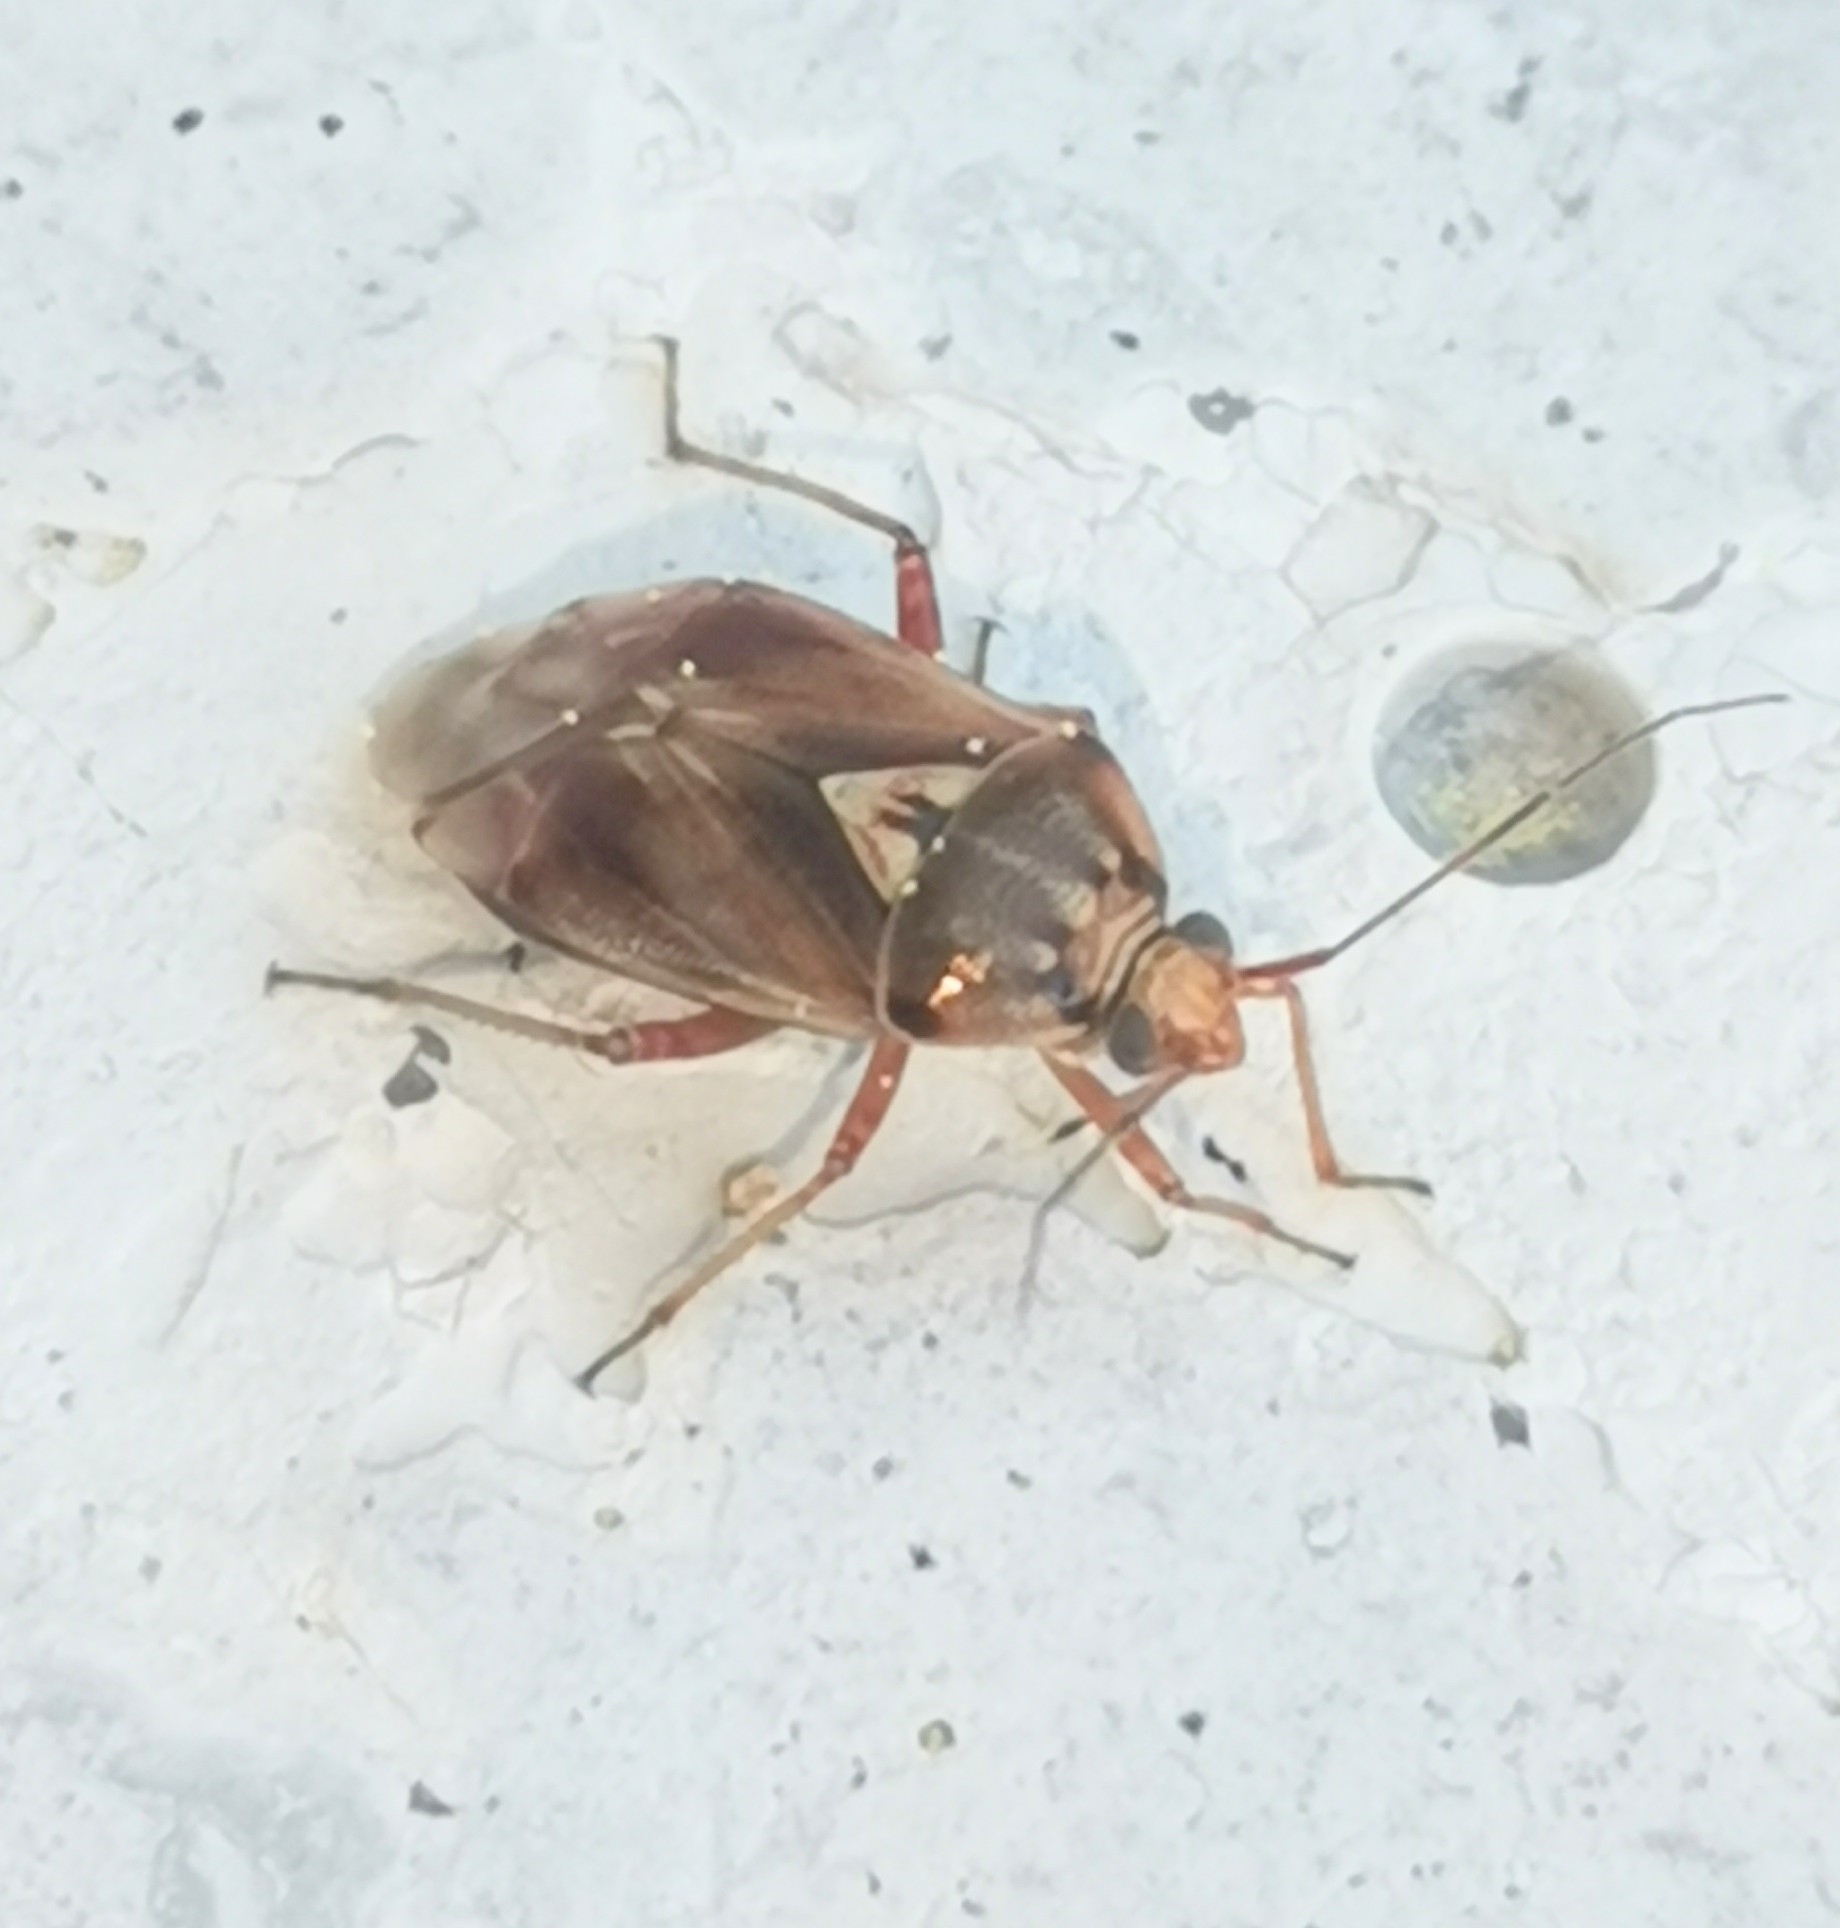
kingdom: Animalia
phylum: Arthropoda
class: Insecta
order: Hemiptera
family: Miridae
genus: Lygus
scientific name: Lygus punctatus
